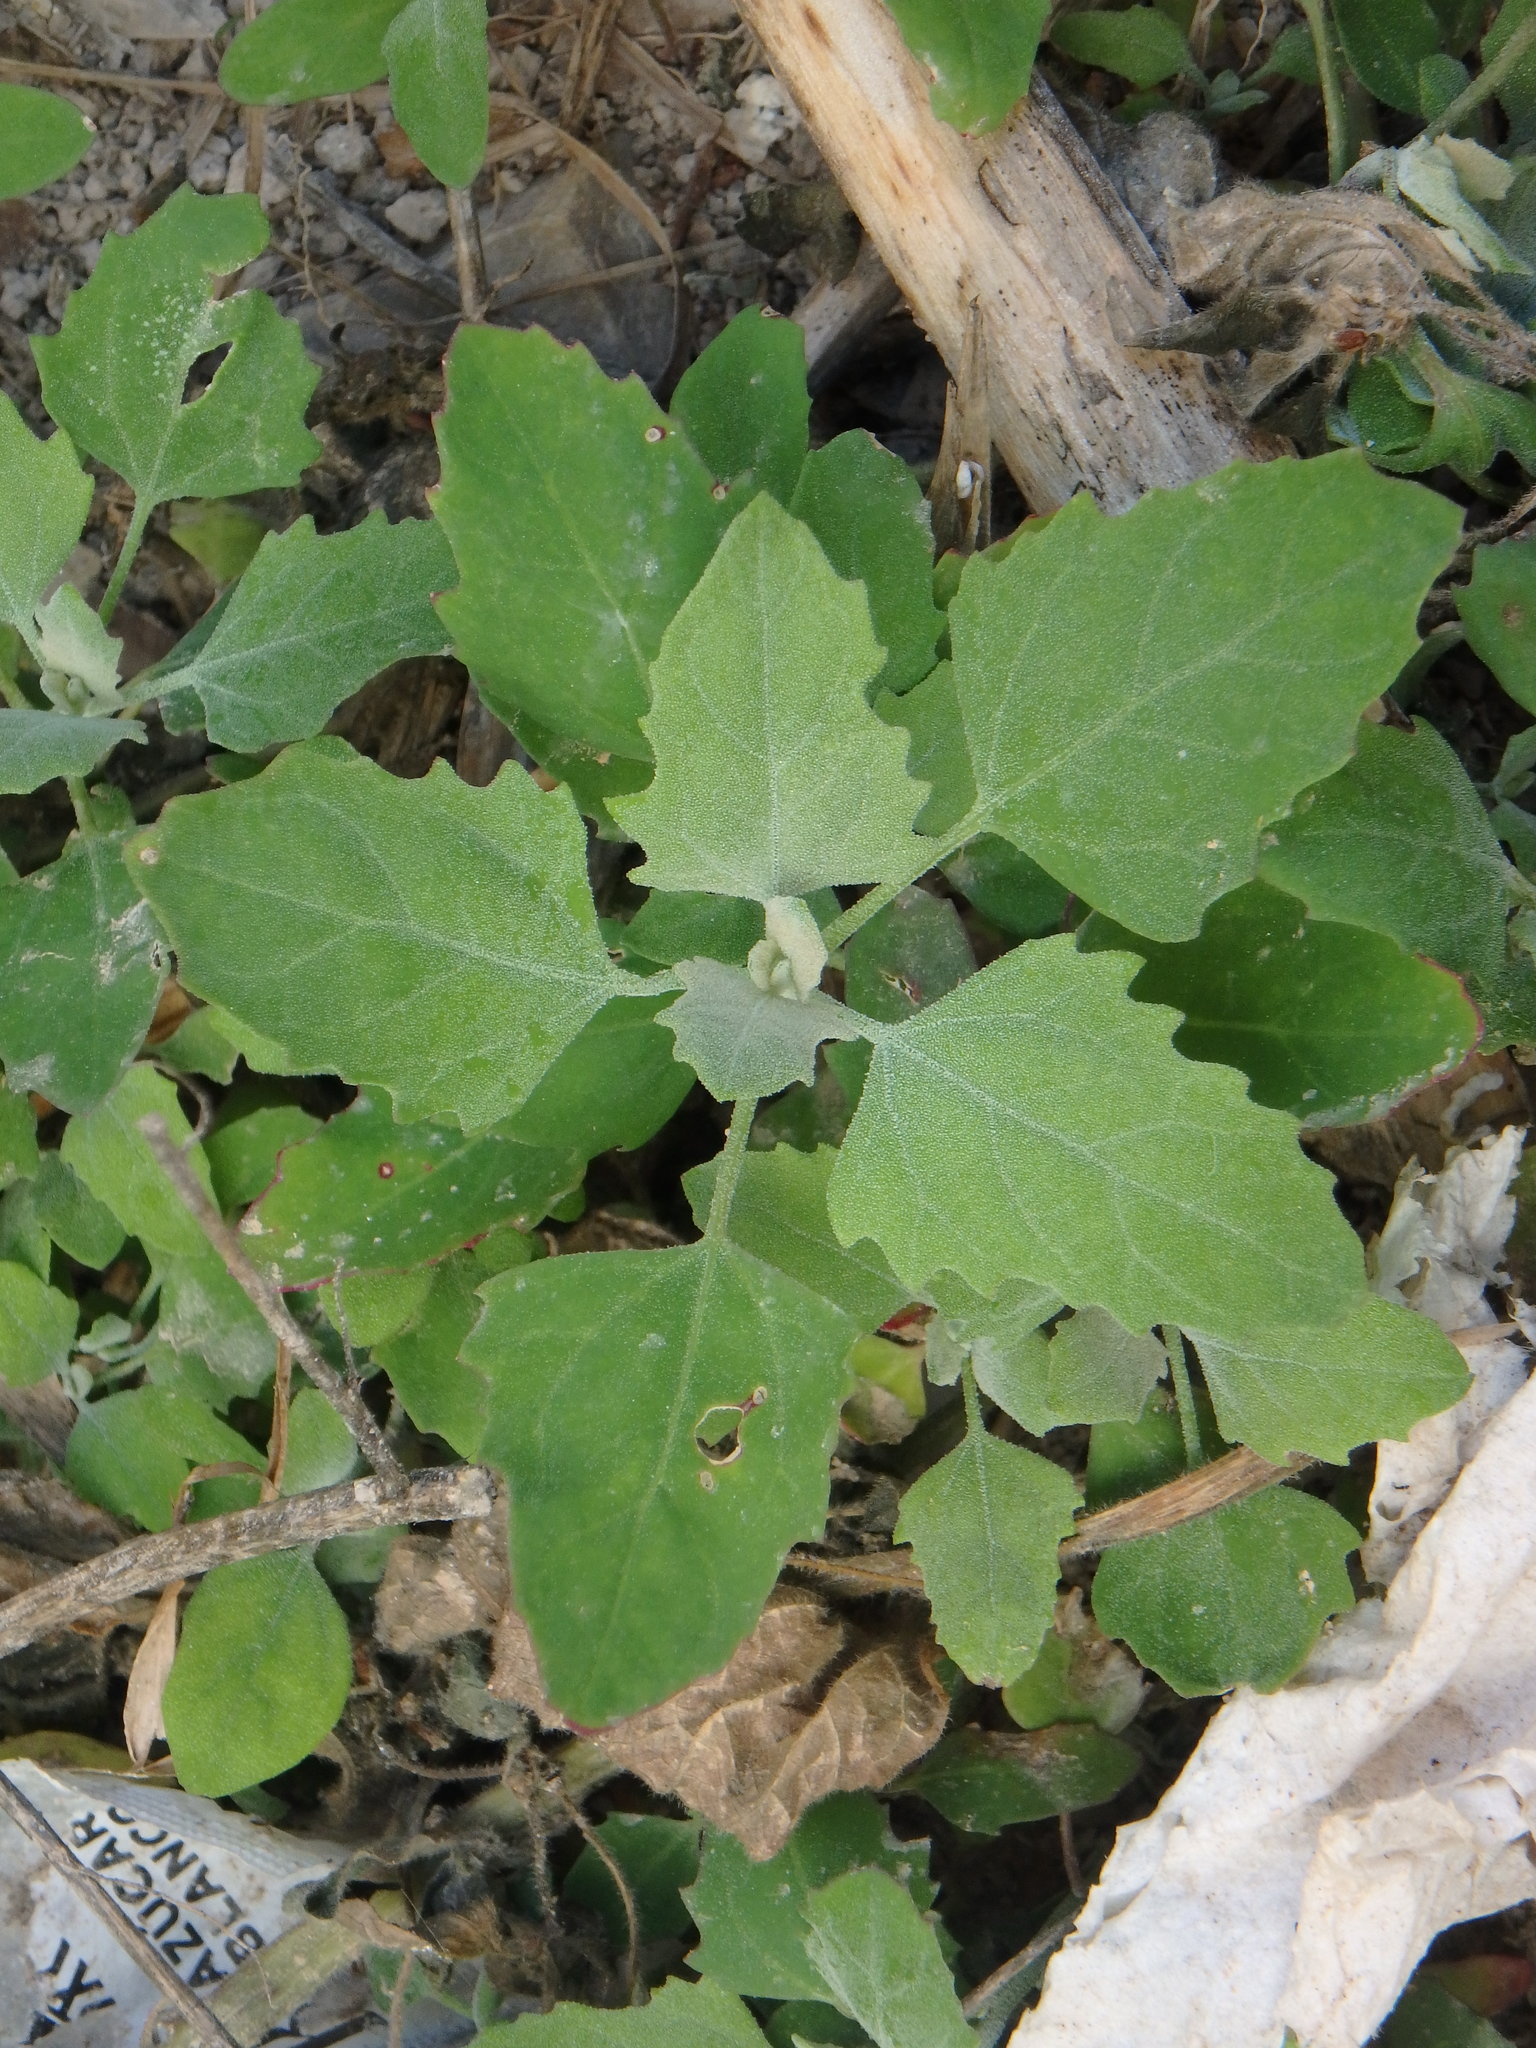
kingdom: Plantae
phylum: Tracheophyta
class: Magnoliopsida
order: Caryophyllales
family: Amaranthaceae
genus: Chenopodium
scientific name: Chenopodium album
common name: Fat-hen
